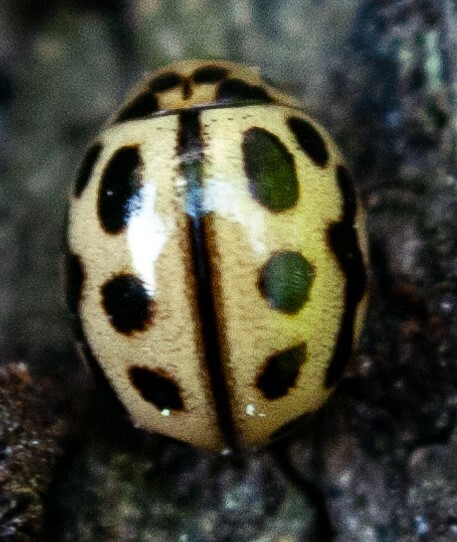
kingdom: Animalia
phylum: Arthropoda
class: Insecta
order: Coleoptera
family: Coccinellidae
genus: Tytthaspis
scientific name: Tytthaspis sedecimpunctata
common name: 16-spot ladybird
